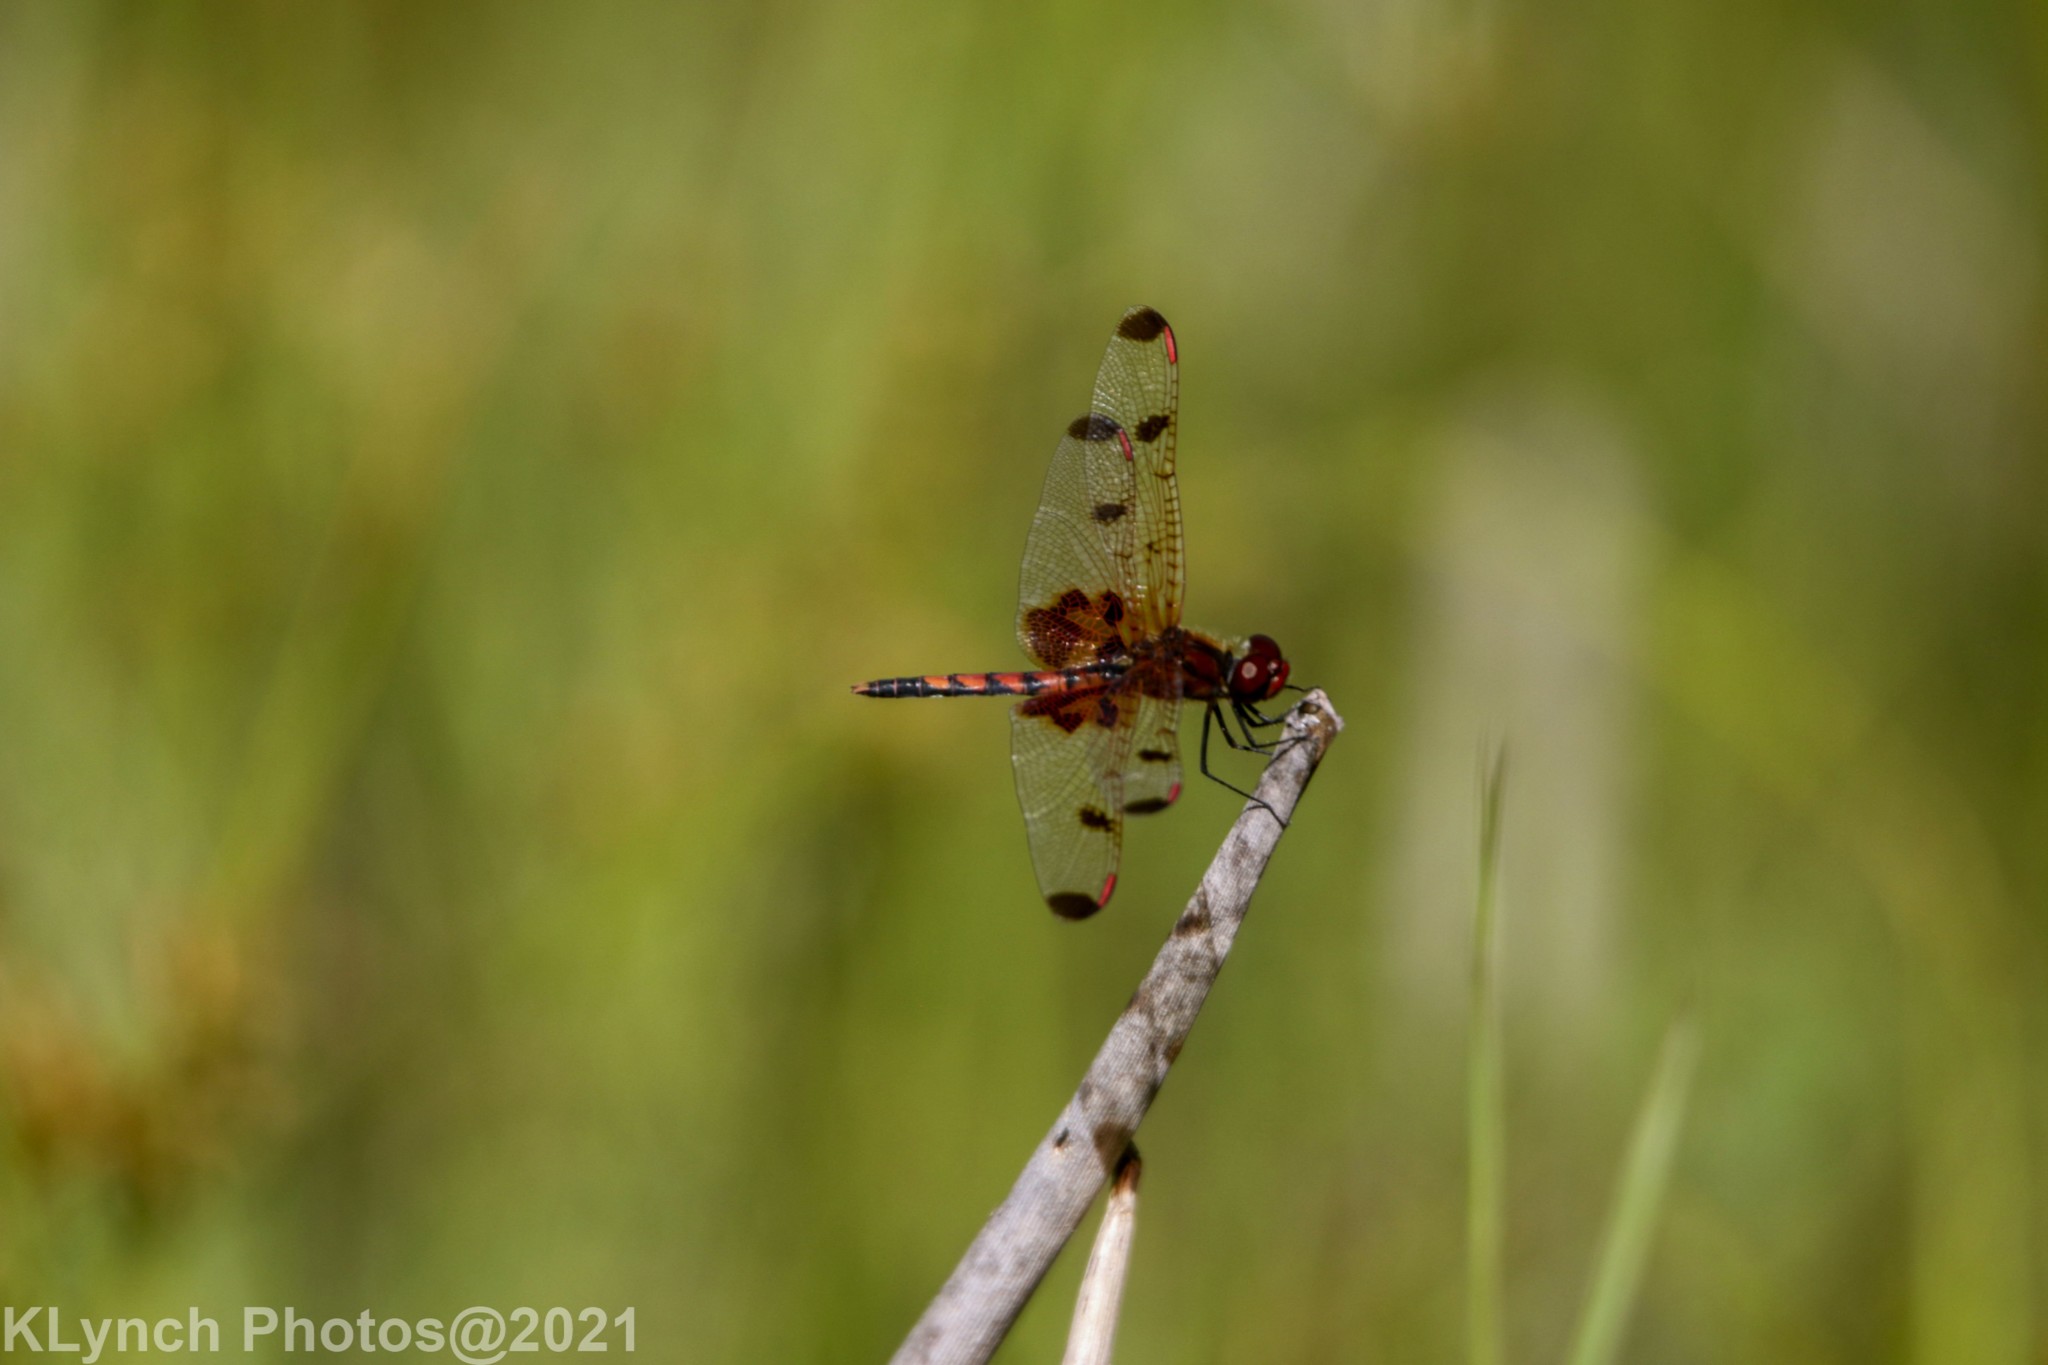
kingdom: Animalia
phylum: Arthropoda
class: Insecta
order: Odonata
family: Libellulidae
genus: Celithemis
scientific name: Celithemis elisa
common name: Calico pennant
